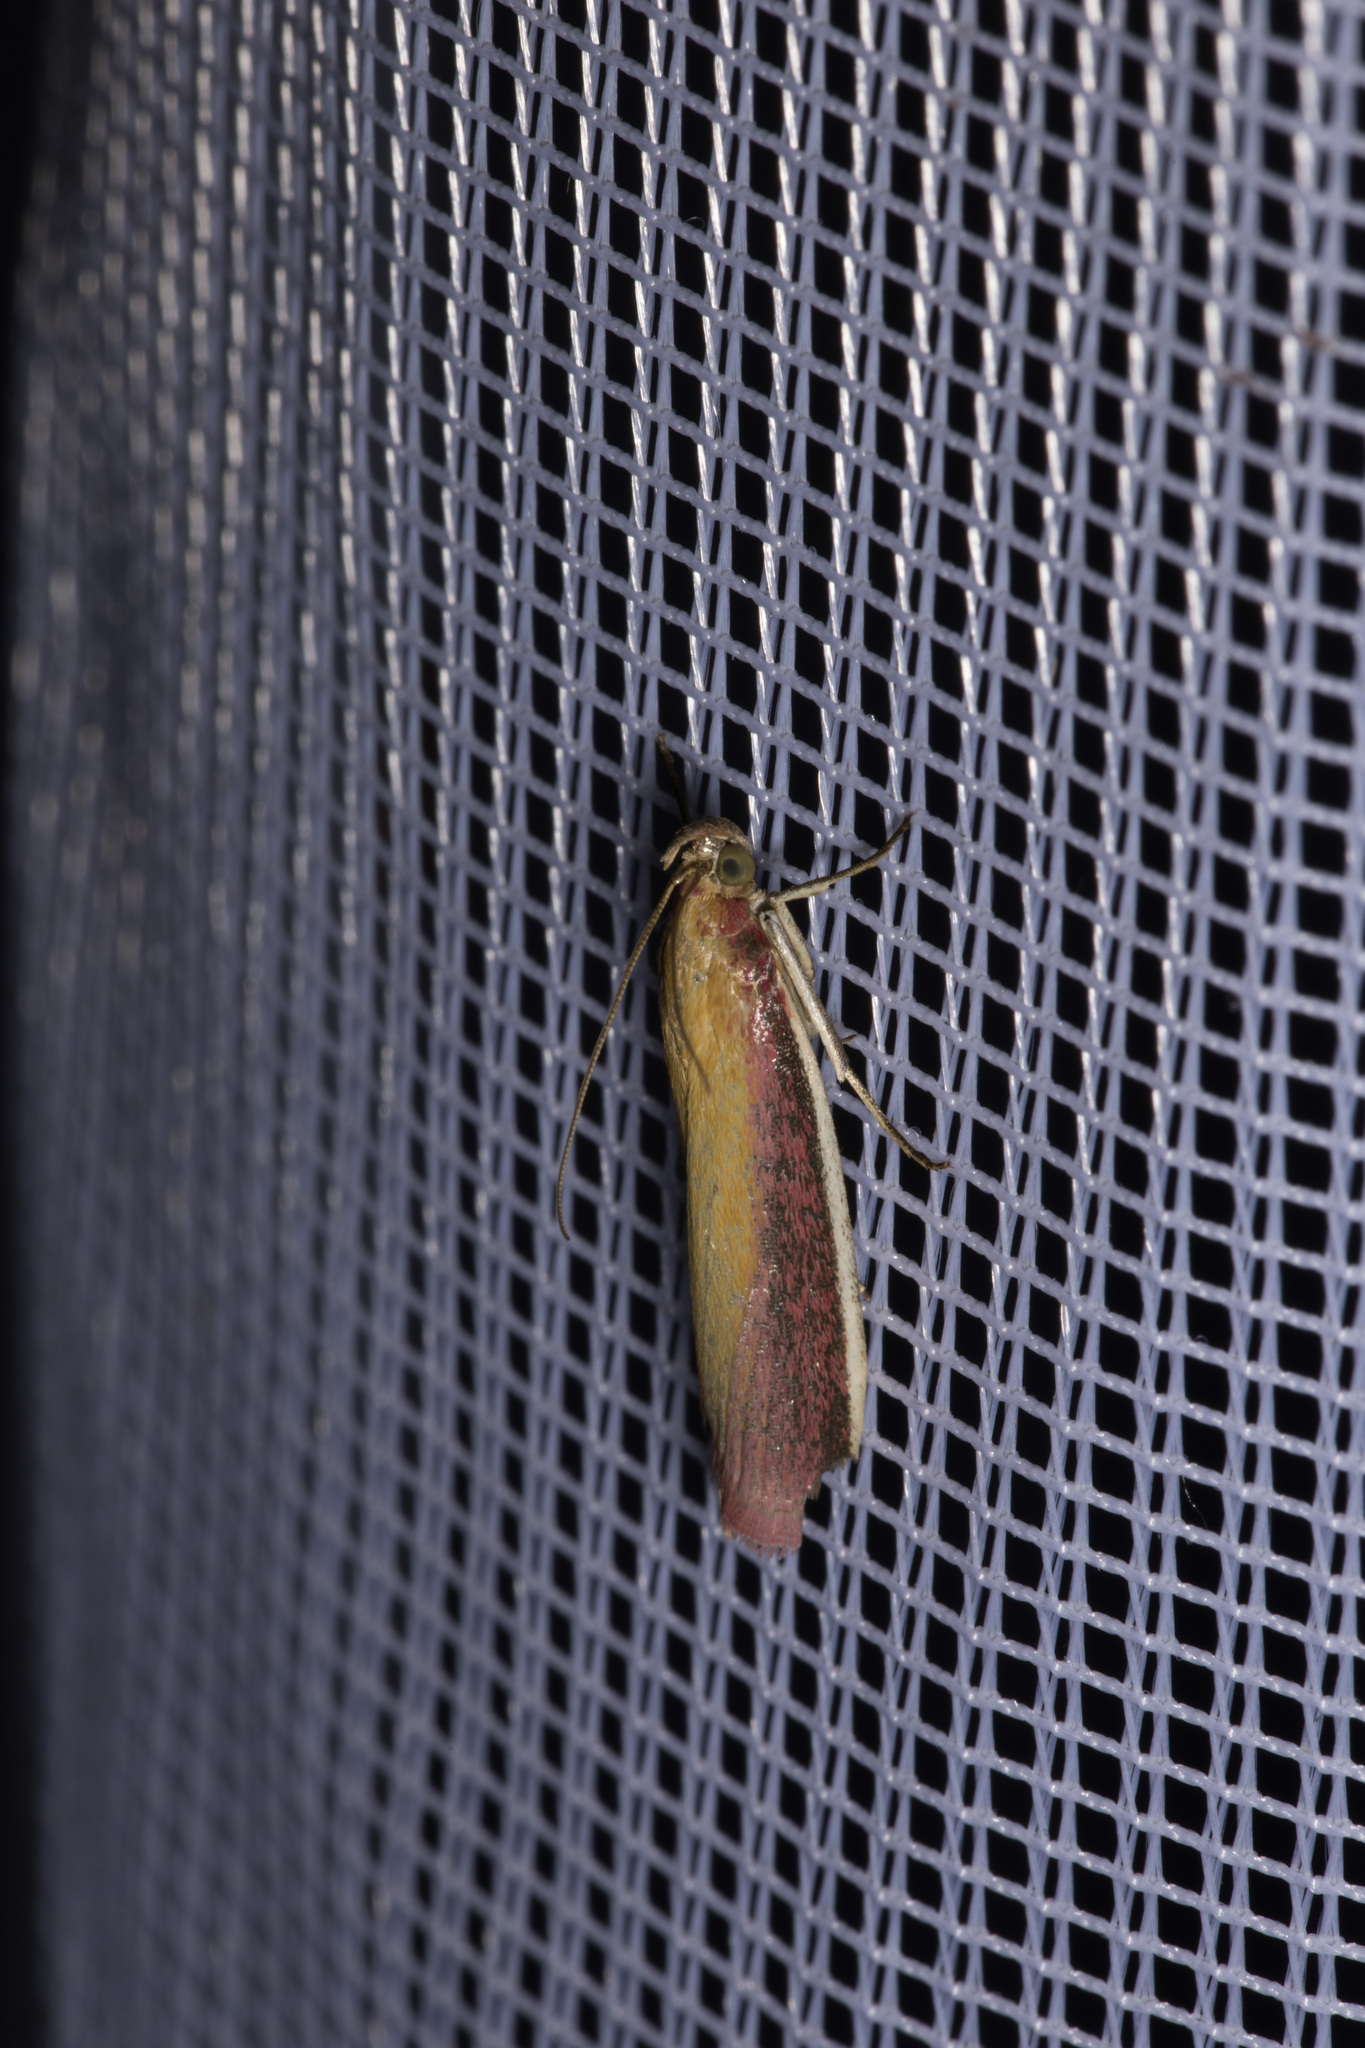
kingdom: Animalia
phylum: Arthropoda
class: Insecta
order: Lepidoptera
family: Pyralidae
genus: Oncocera
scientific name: Oncocera semirubella
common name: Rosy-striped knot-horn
